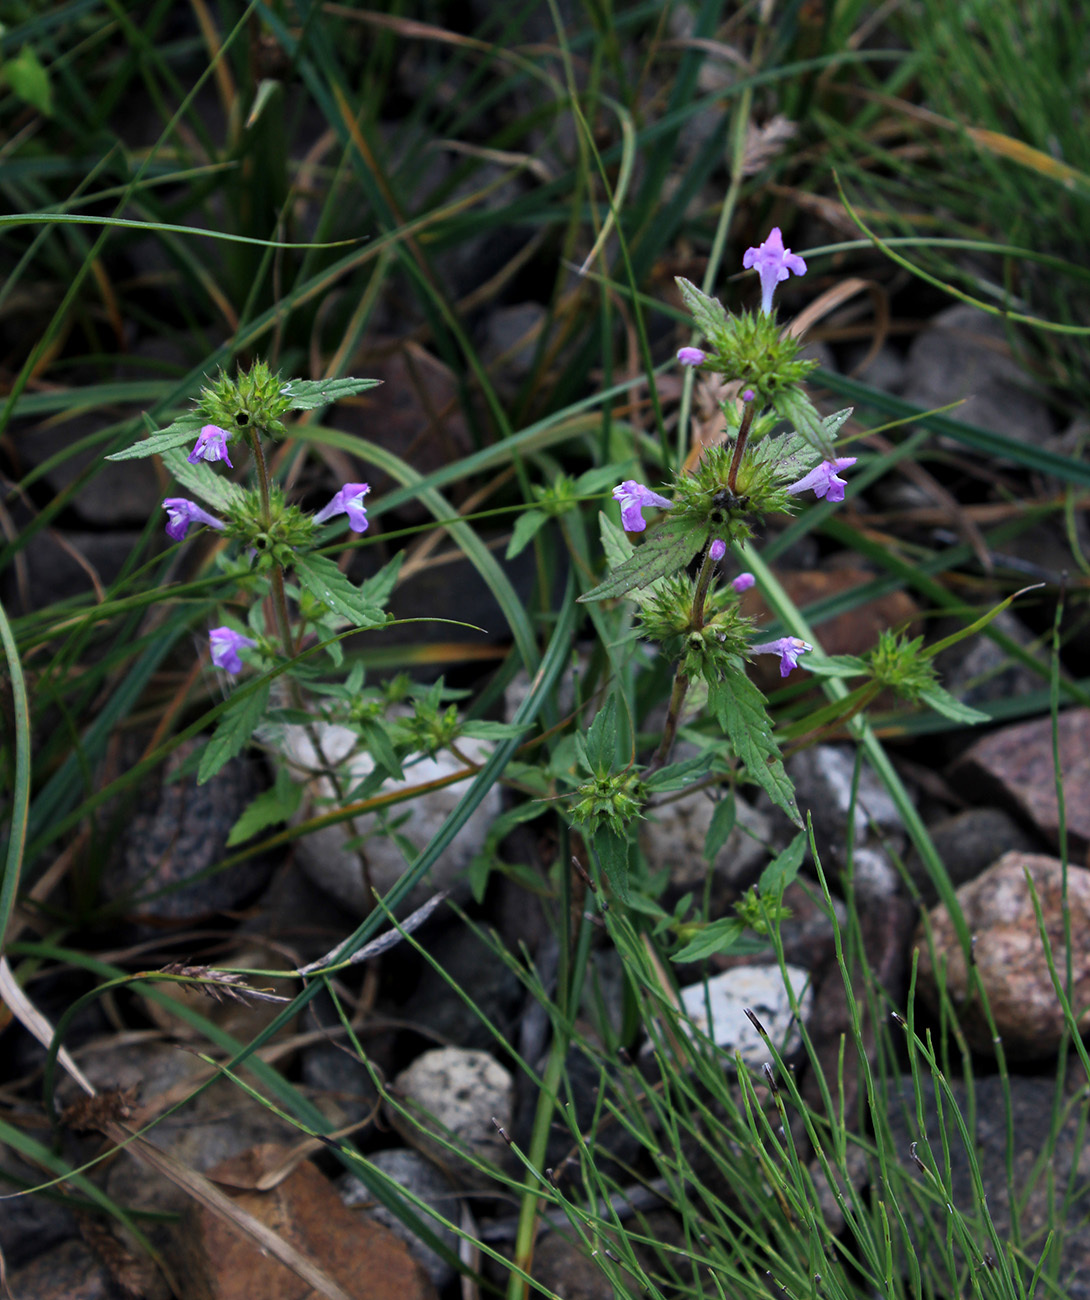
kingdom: Plantae
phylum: Tracheophyta
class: Magnoliopsida
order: Lamiales
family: Lamiaceae
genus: Galeopsis
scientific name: Galeopsis ladanum
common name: Broad-leaved hemp-nettle
